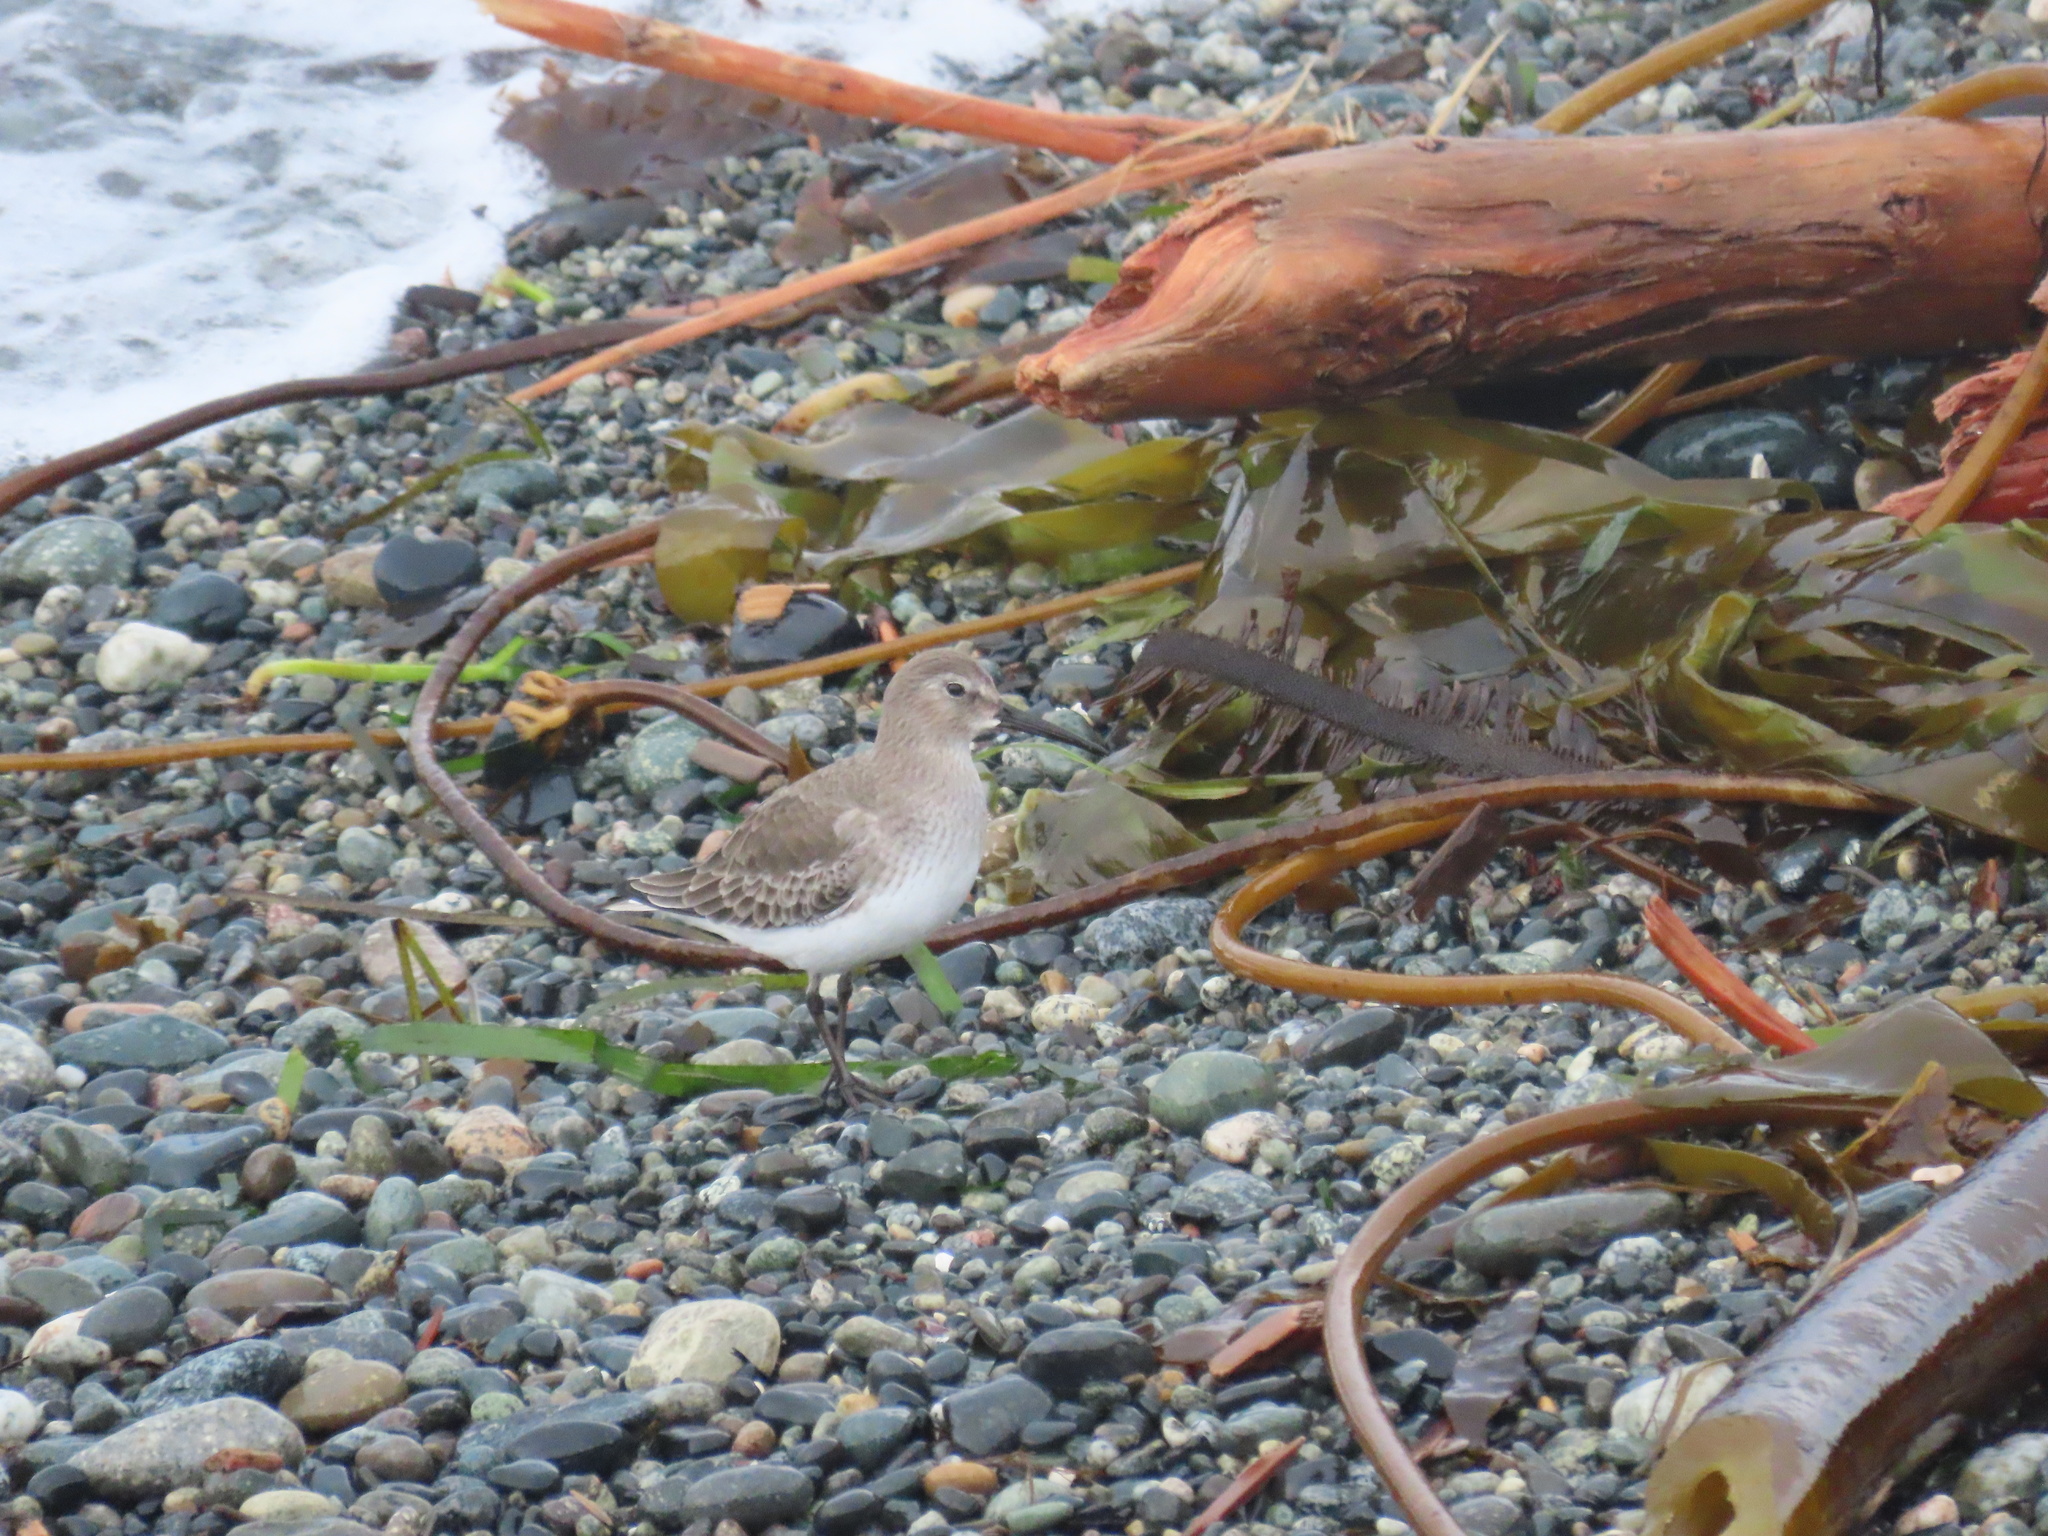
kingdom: Animalia
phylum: Chordata
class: Aves
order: Charadriiformes
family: Scolopacidae
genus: Calidris
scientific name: Calidris alpina
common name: Dunlin
